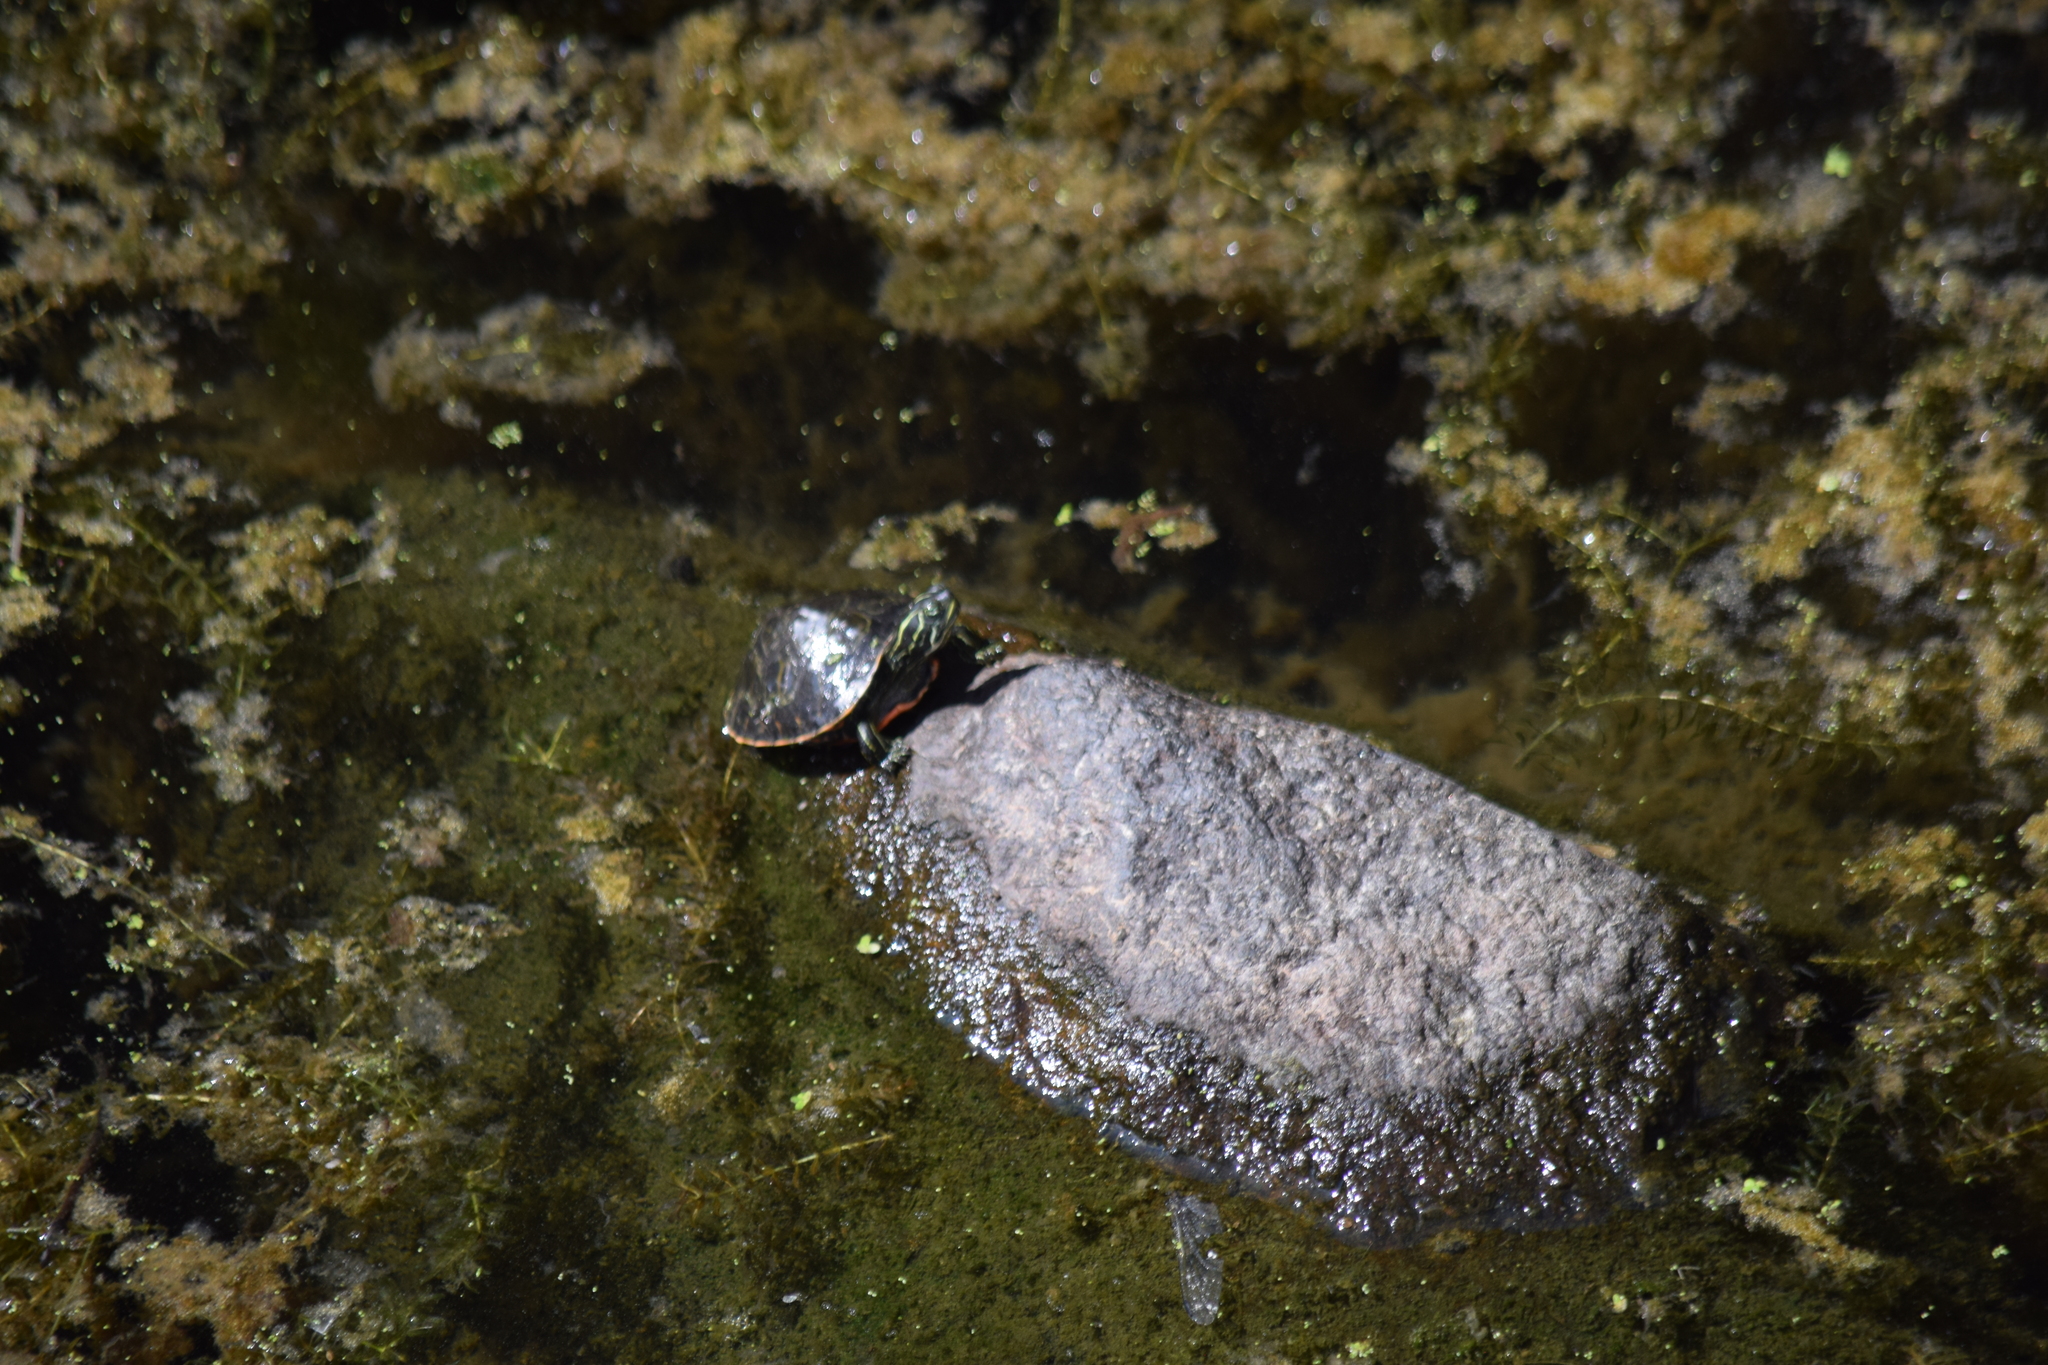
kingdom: Animalia
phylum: Chordata
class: Testudines
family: Emydidae
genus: Pseudemys
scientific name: Pseudemys rubriventris
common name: American red-bellied turtle
